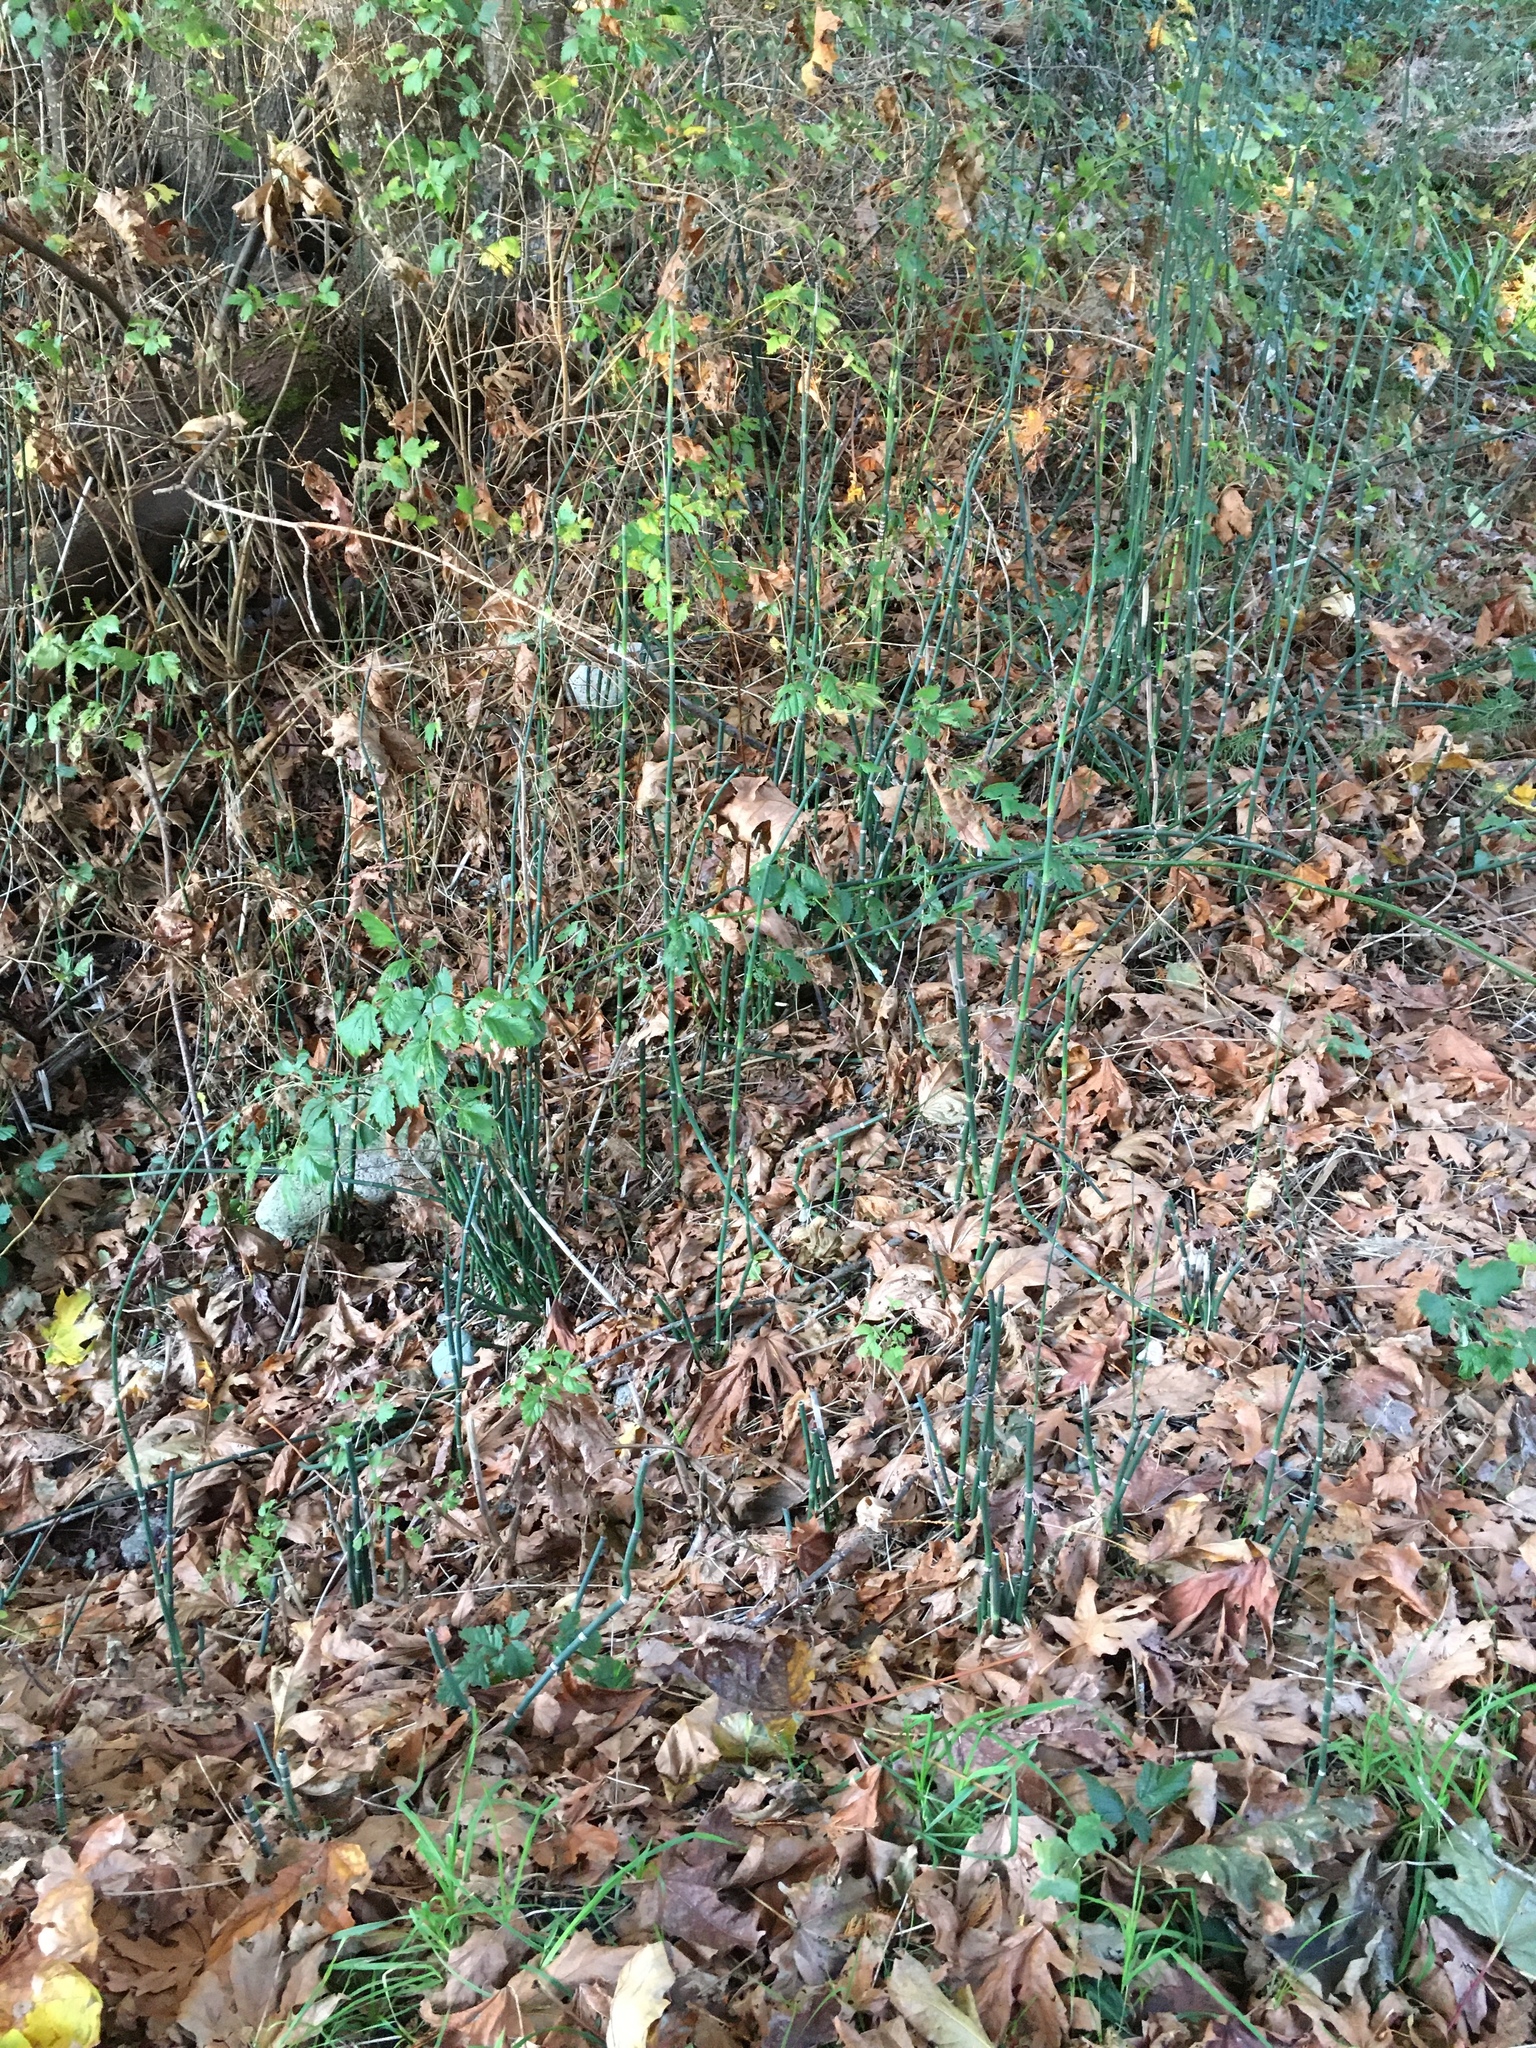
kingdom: Plantae
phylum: Tracheophyta
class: Polypodiopsida
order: Equisetales
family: Equisetaceae
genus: Equisetum
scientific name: Equisetum praealtum
